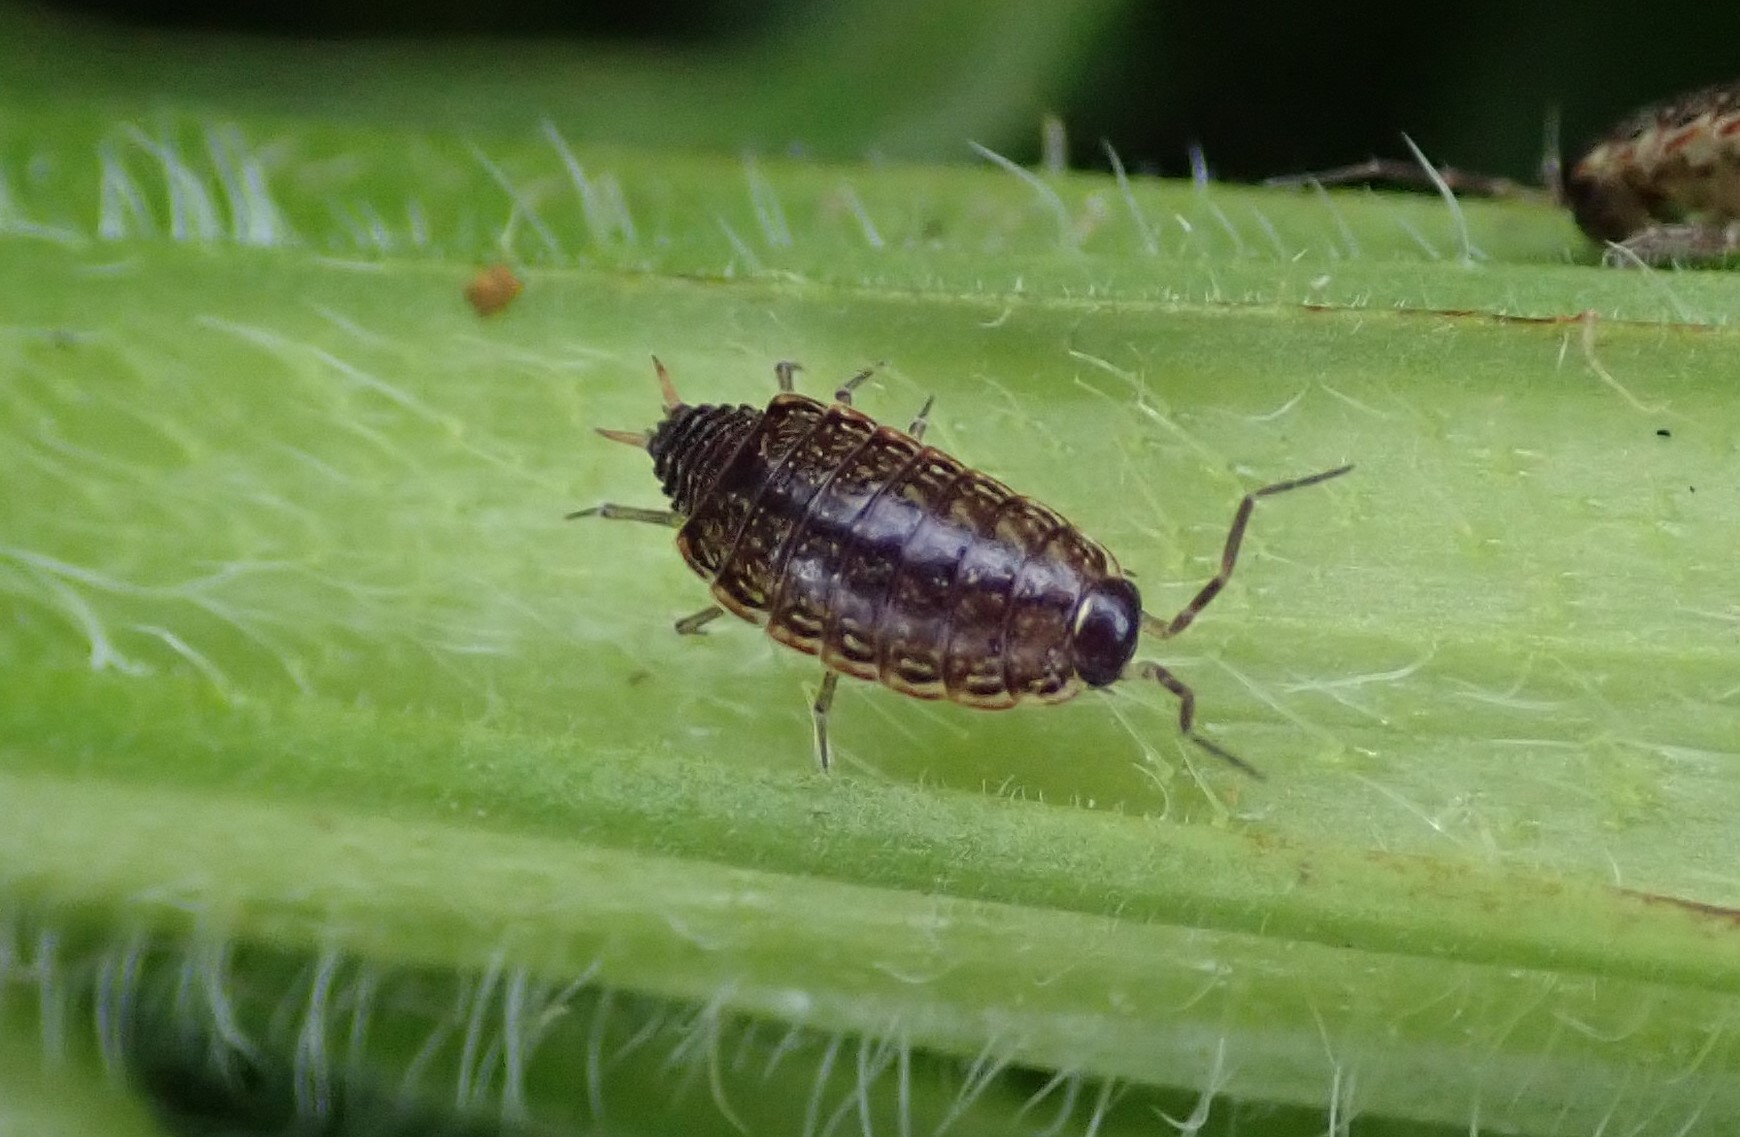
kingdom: Animalia
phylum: Arthropoda
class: Malacostraca
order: Isopoda
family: Philosciidae
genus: Philoscia
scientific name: Philoscia muscorum
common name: Common striped woodlouse
